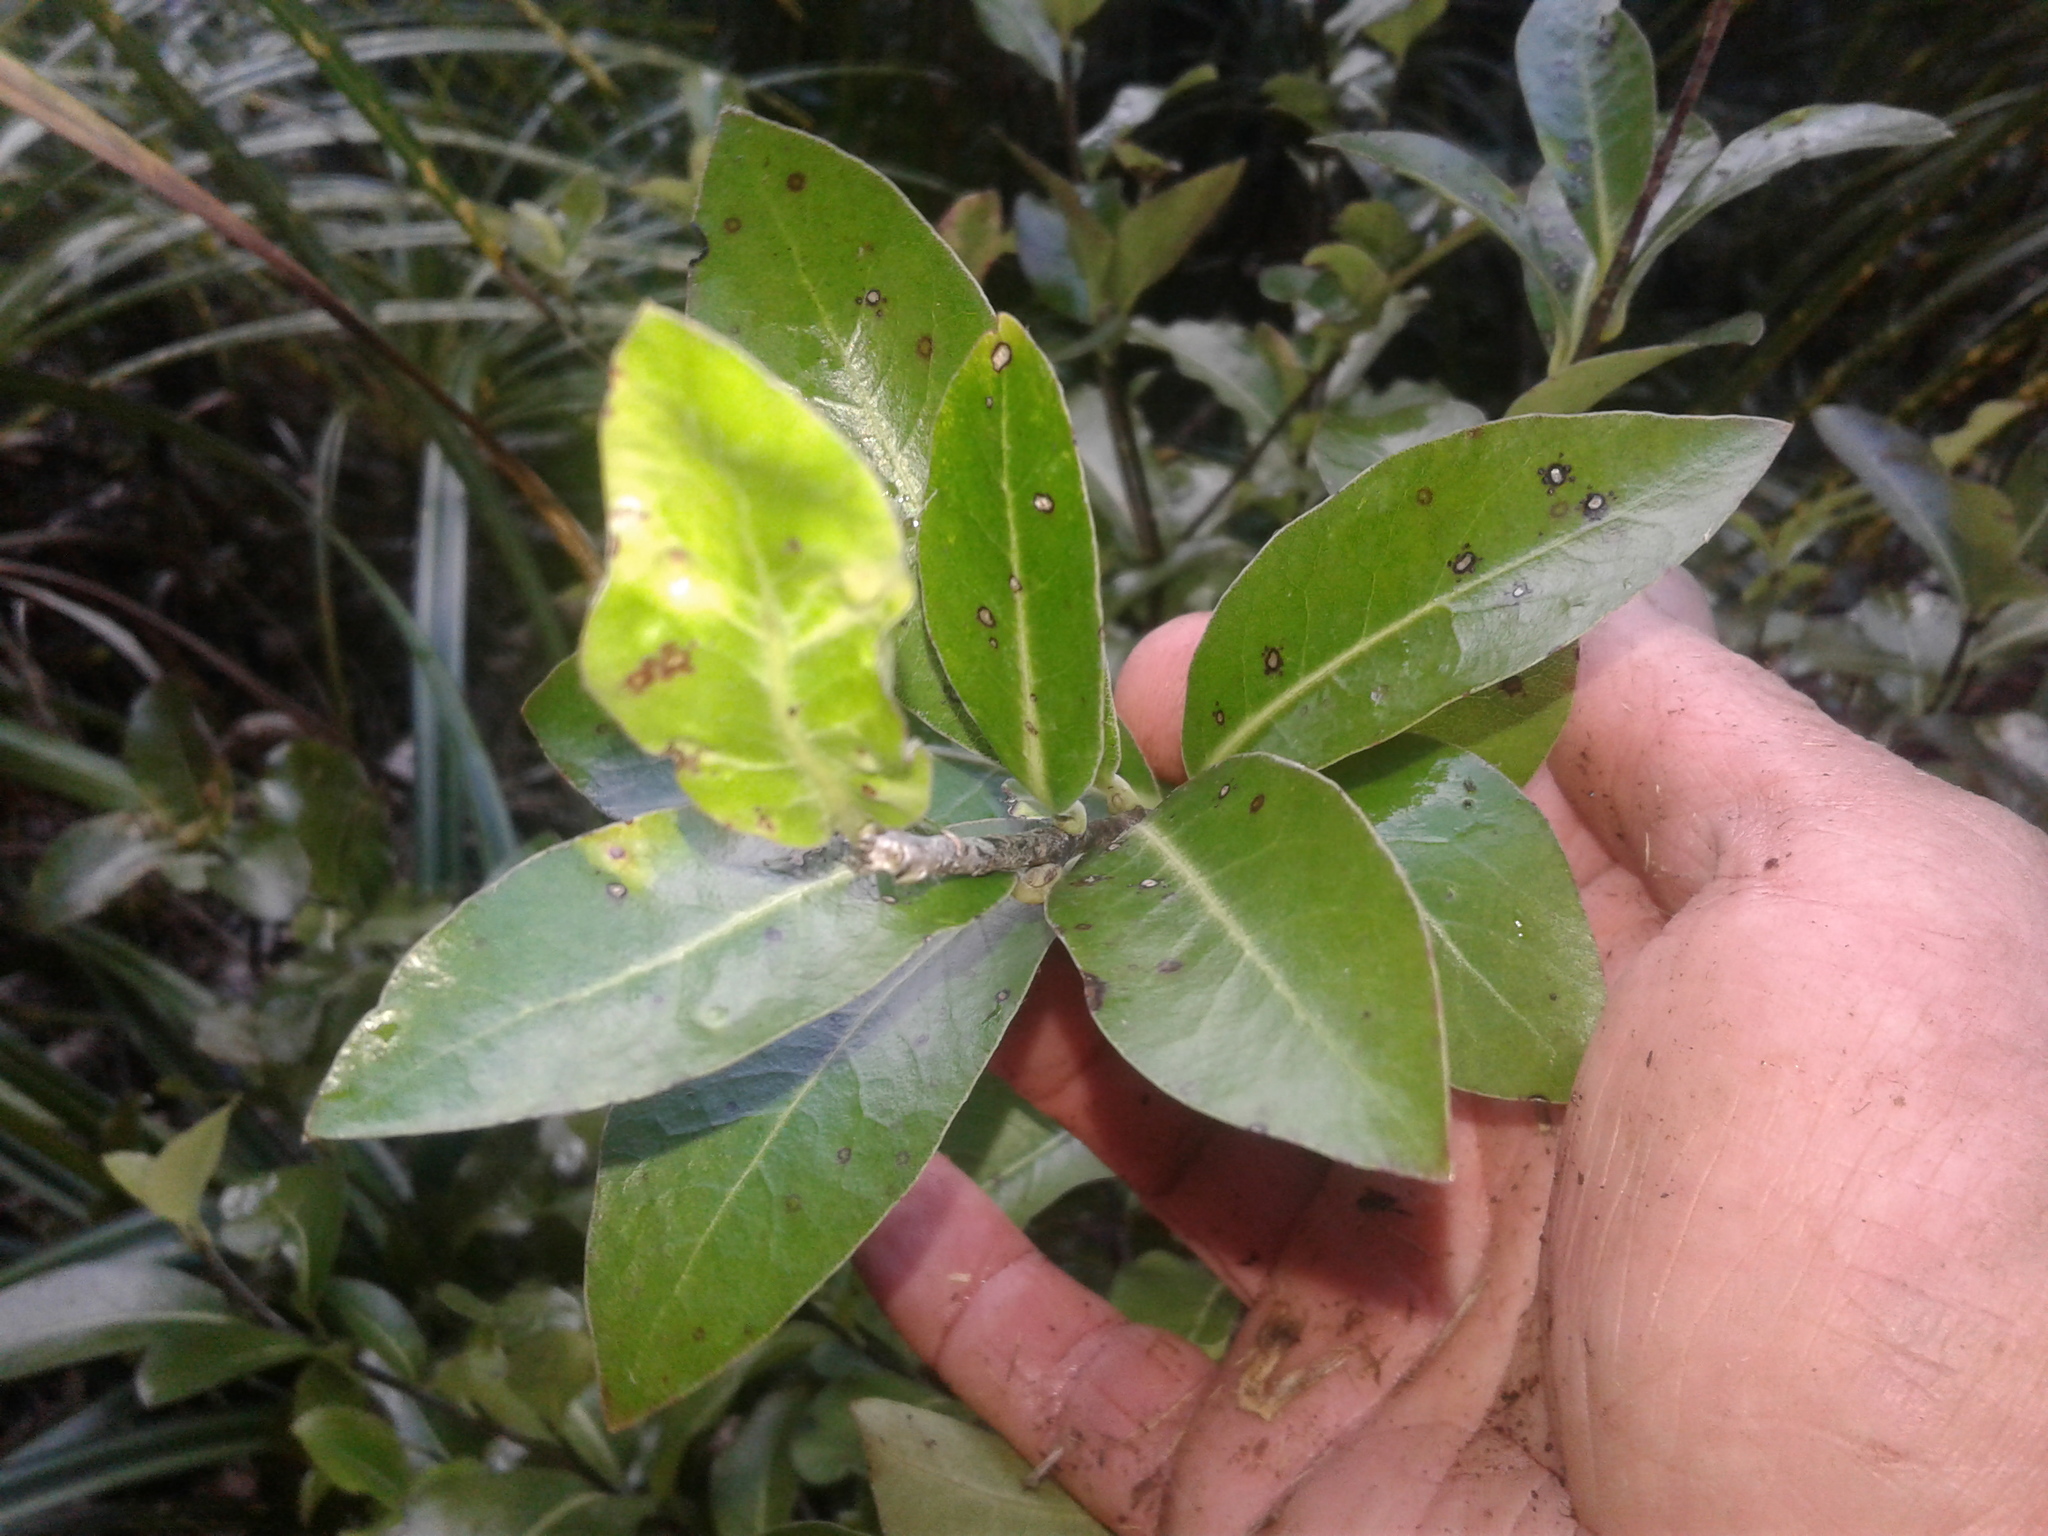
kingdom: Plantae
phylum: Tracheophyta
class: Magnoliopsida
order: Apiales
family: Pittosporaceae
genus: Pittosporum
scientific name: Pittosporum colensoi
